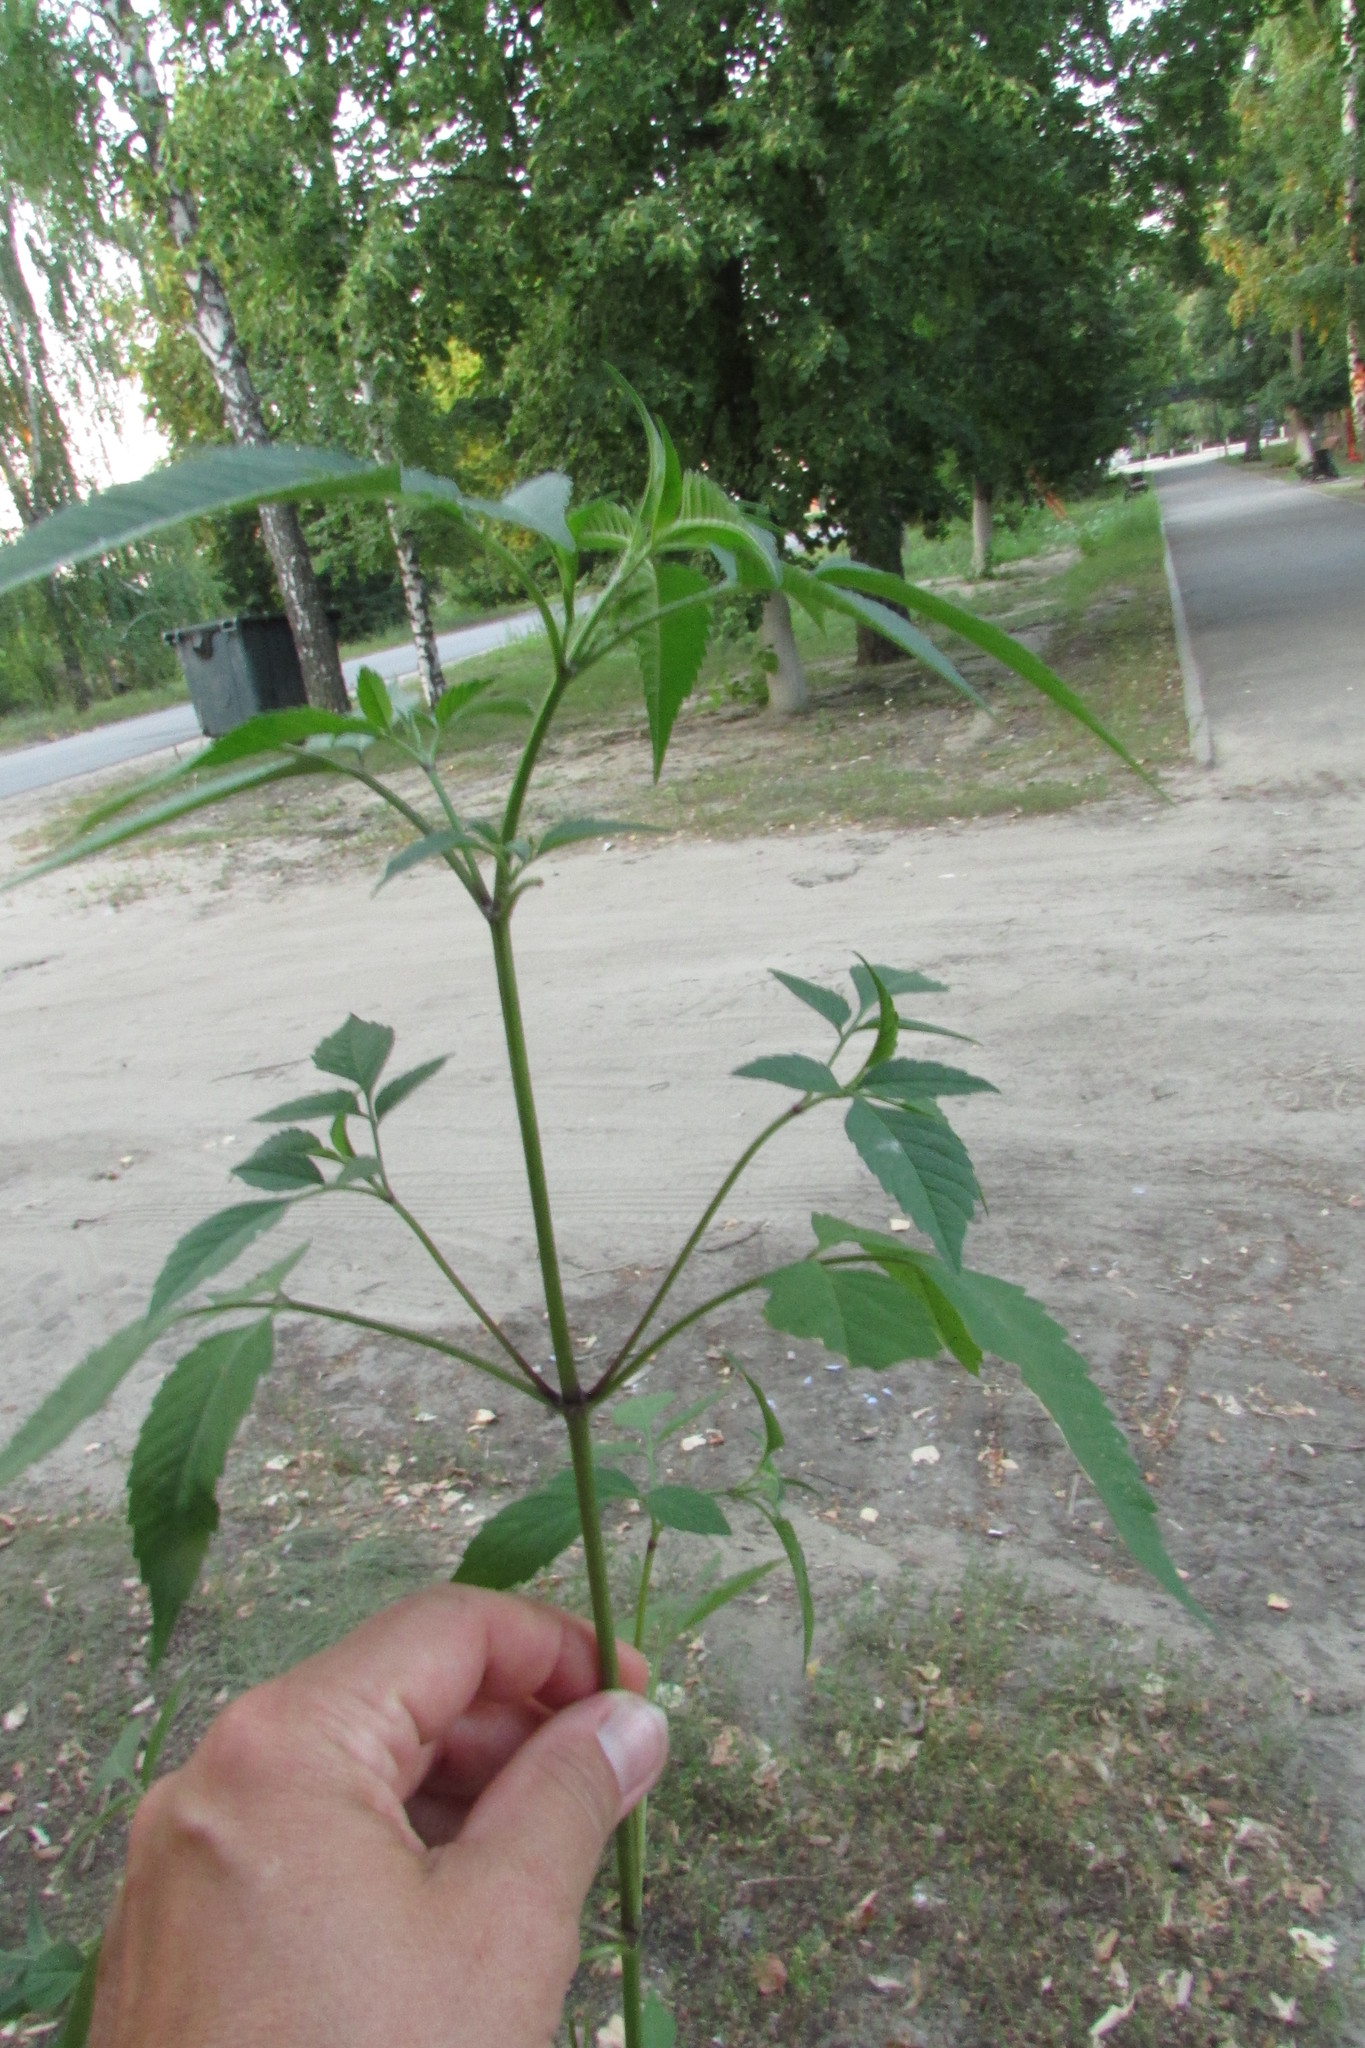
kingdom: Plantae
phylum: Tracheophyta
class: Magnoliopsida
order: Asterales
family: Asteraceae
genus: Bidens
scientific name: Bidens frondosa
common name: Beggarticks
